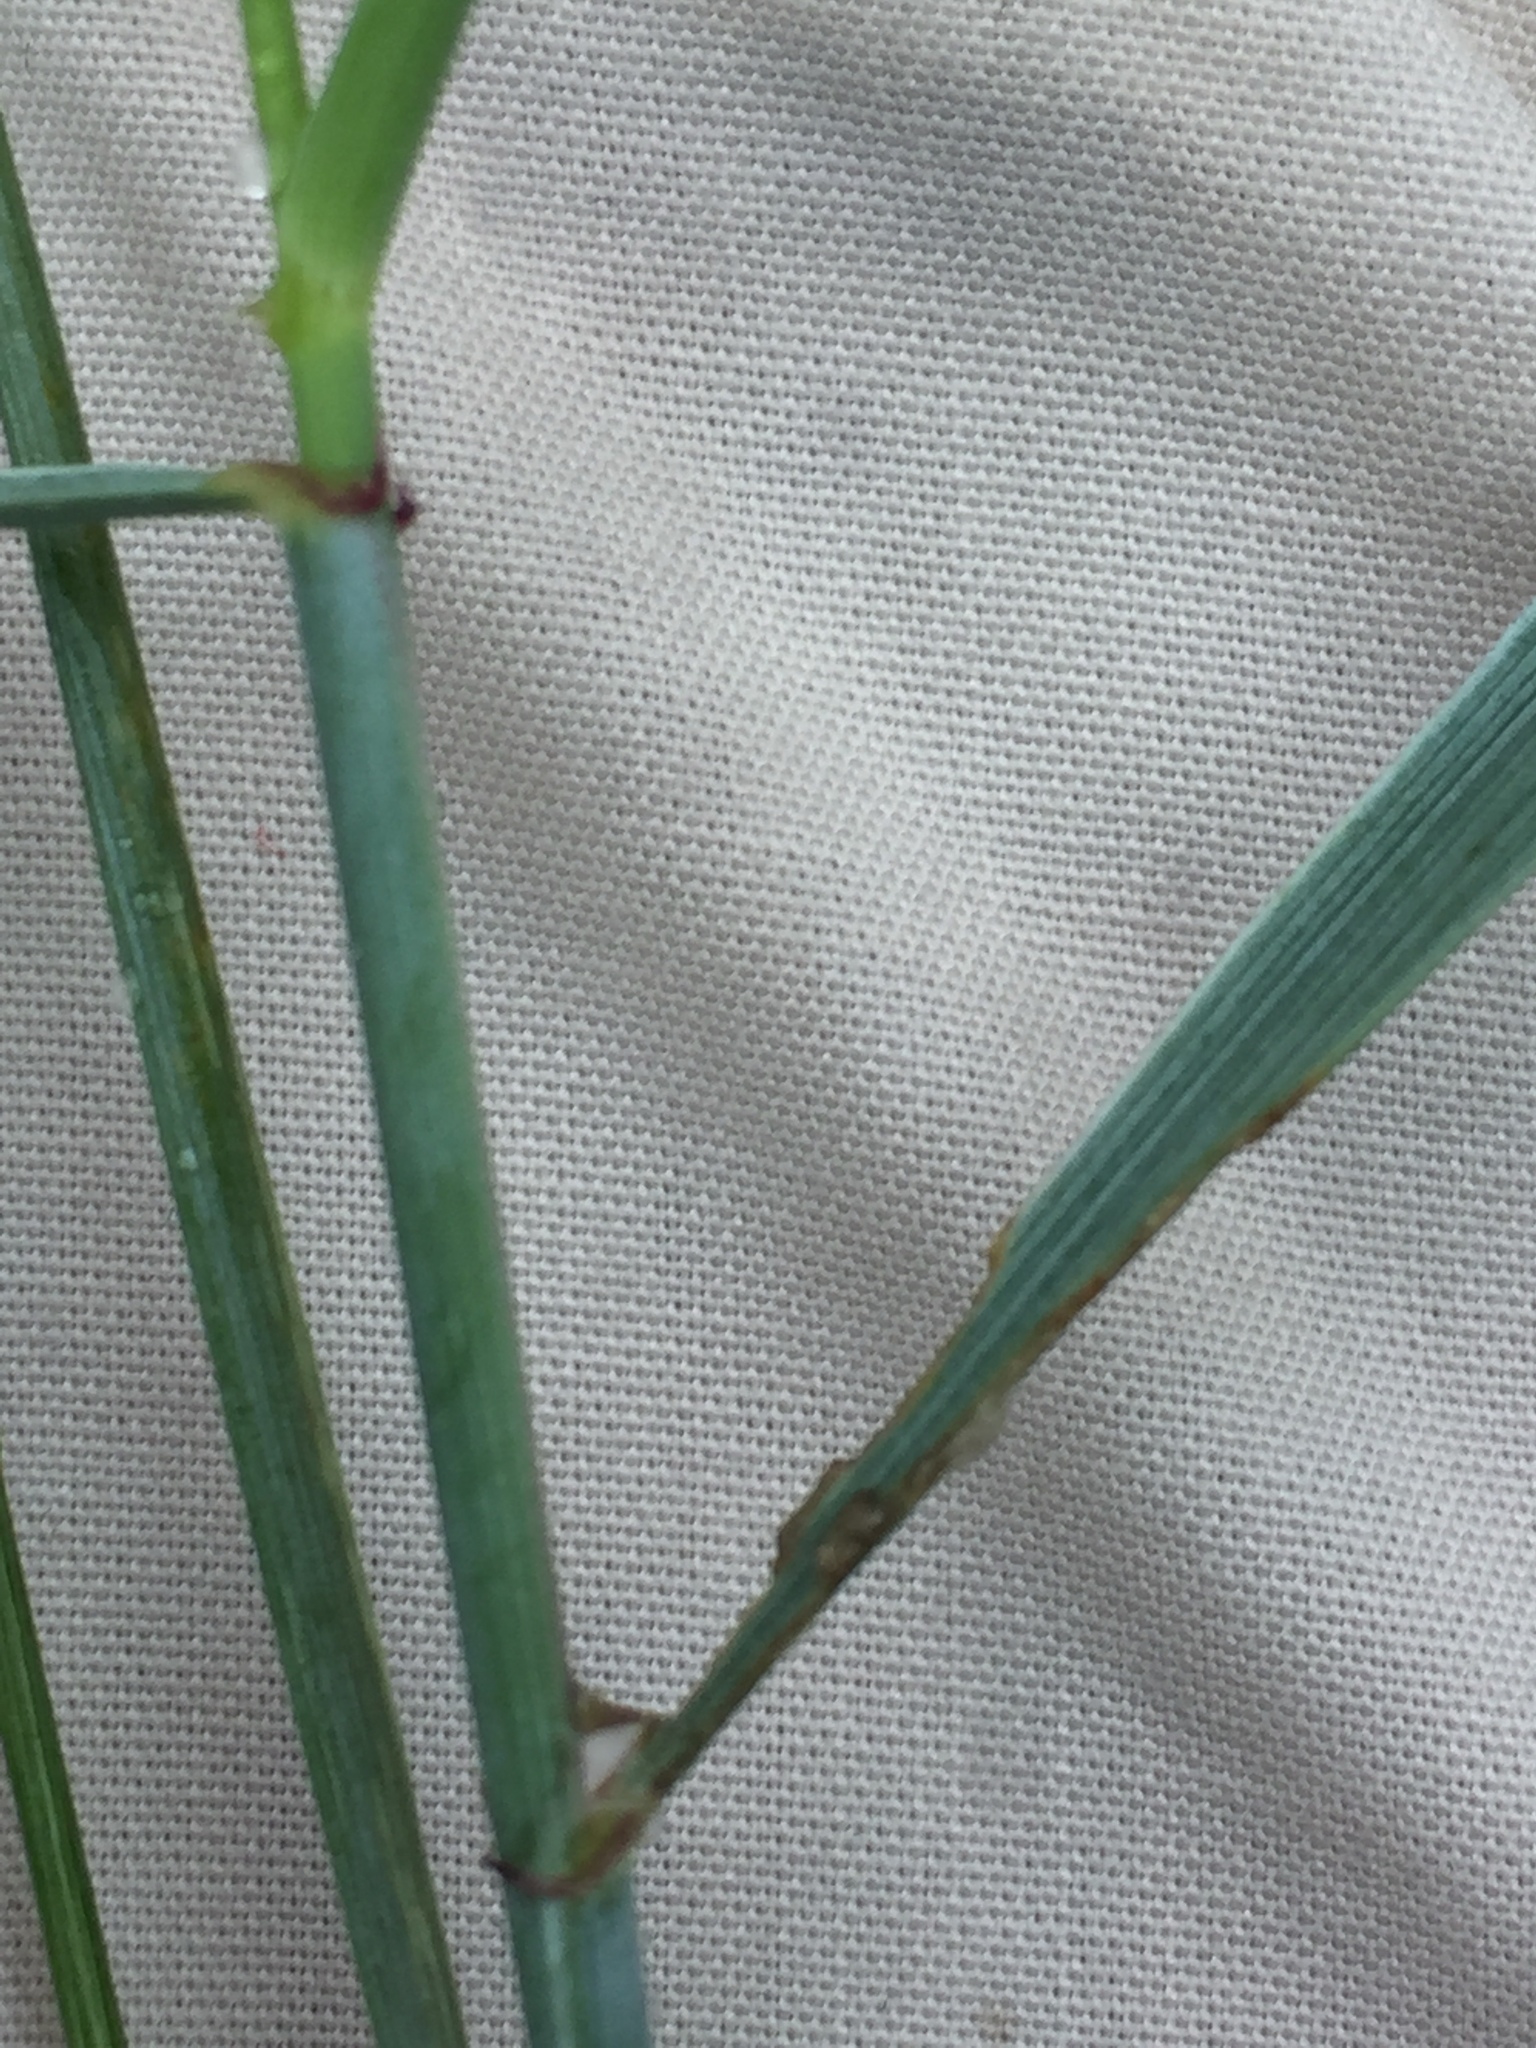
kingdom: Plantae
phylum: Tracheophyta
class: Liliopsida
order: Poales
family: Poaceae
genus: Elymus
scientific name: Elymus repens
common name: Quackgrass
